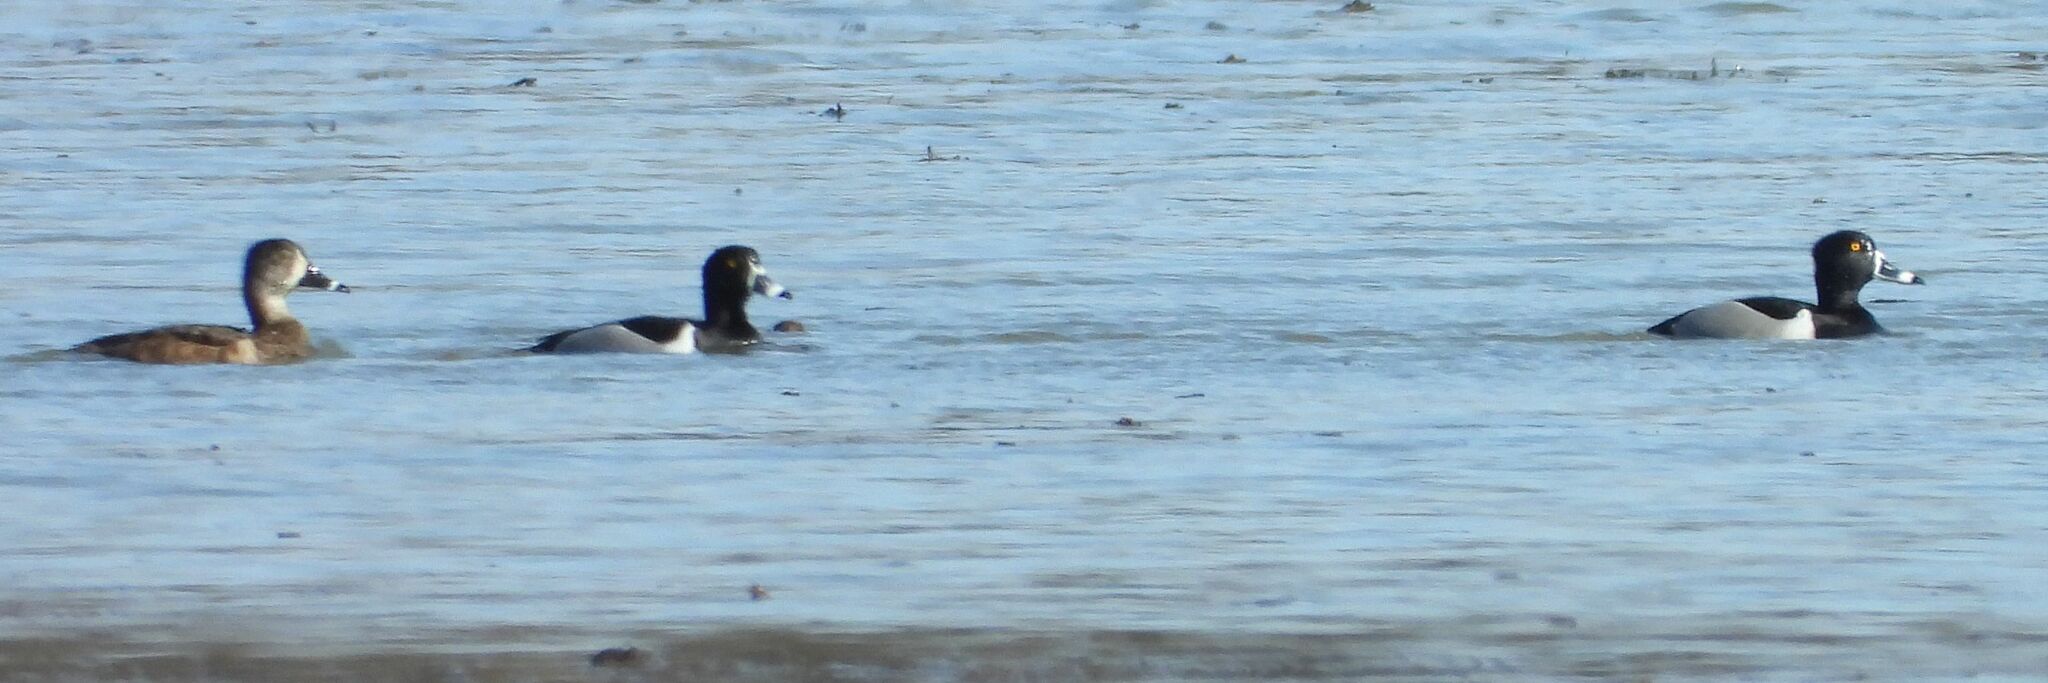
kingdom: Animalia
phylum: Chordata
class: Aves
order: Anseriformes
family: Anatidae
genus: Aythya
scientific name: Aythya collaris
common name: Ring-necked duck
